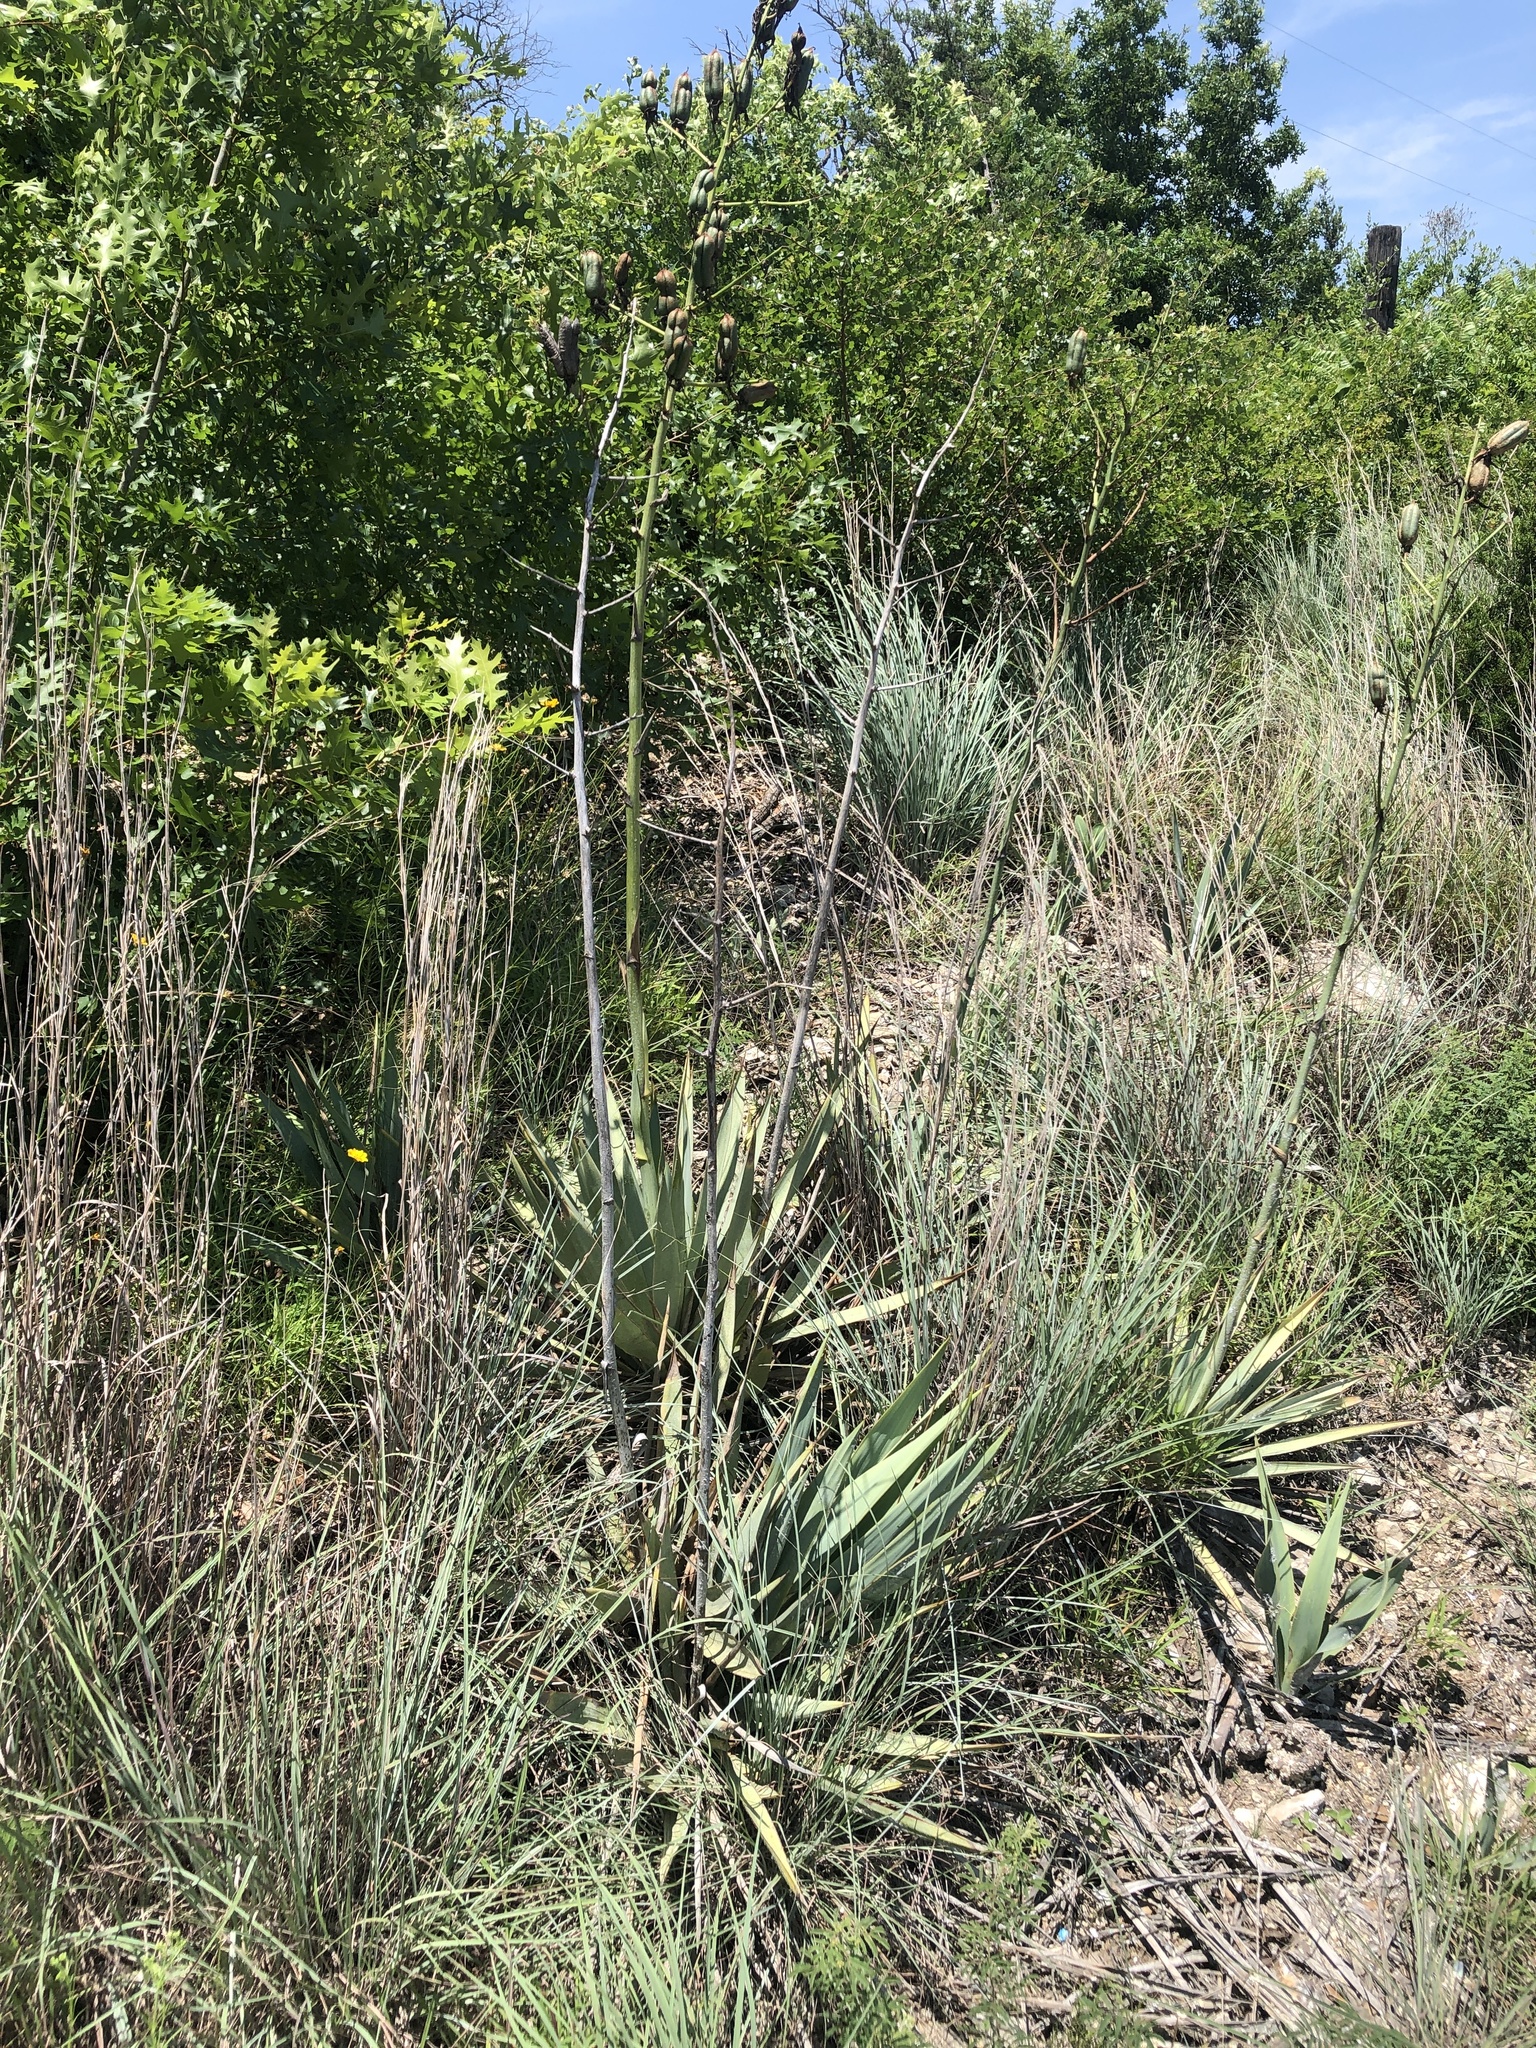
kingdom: Plantae
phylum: Tracheophyta
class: Liliopsida
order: Asparagales
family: Asparagaceae
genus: Yucca
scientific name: Yucca pallida
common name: Pale leaf yucca
